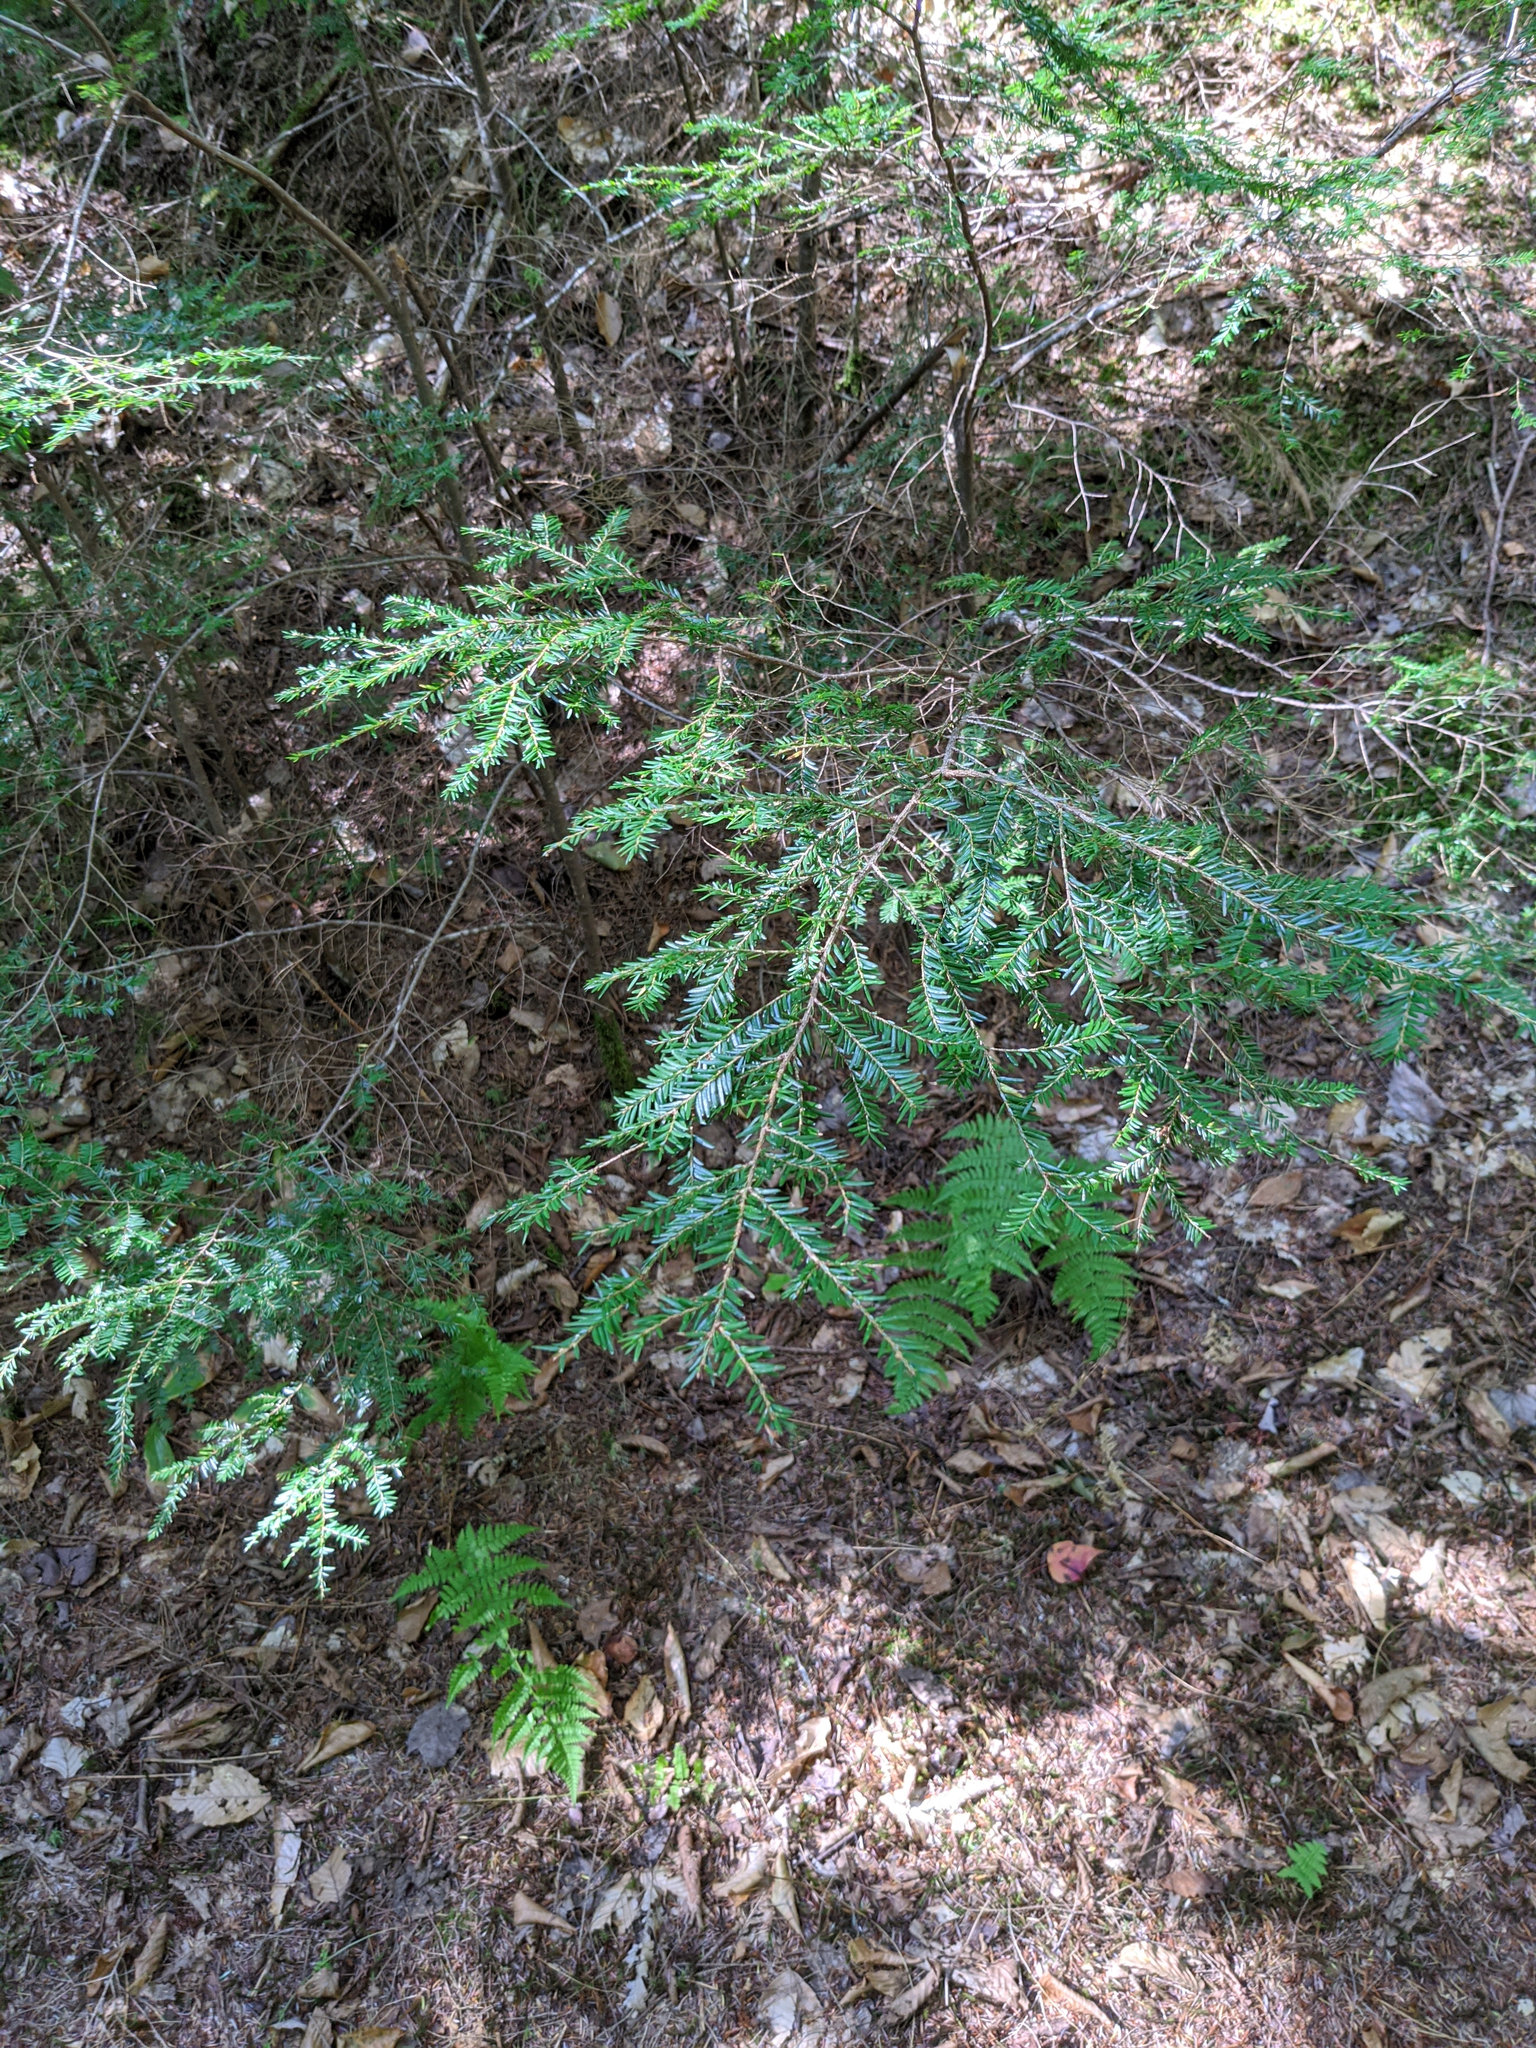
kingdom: Plantae
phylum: Tracheophyta
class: Pinopsida
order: Pinales
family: Pinaceae
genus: Tsuga
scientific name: Tsuga canadensis
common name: Eastern hemlock
